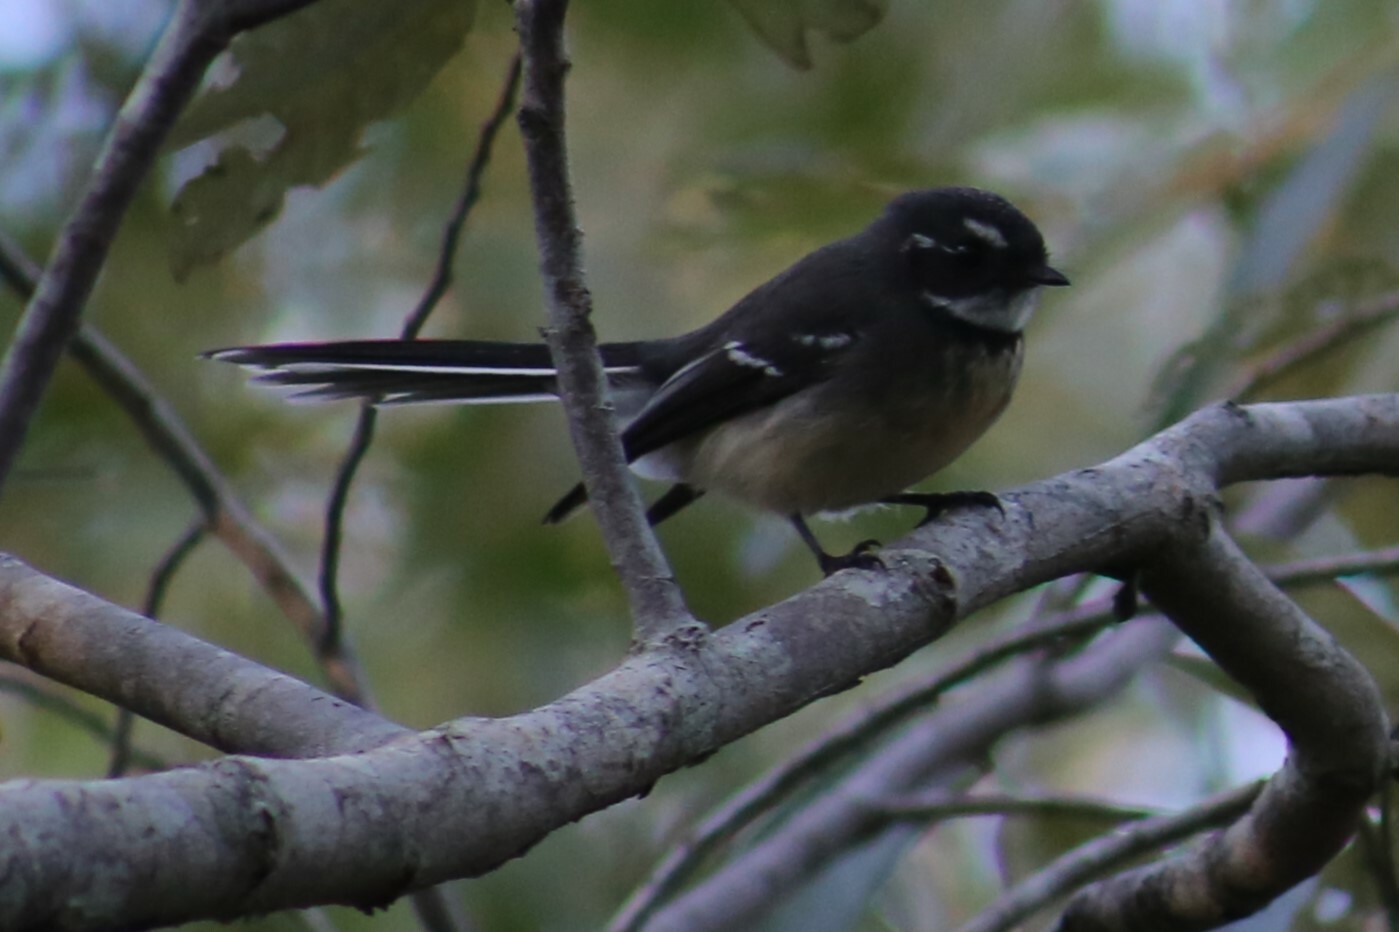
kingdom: Animalia
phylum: Chordata
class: Aves
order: Passeriformes
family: Rhipiduridae
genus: Rhipidura
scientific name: Rhipidura albiscapa
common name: Grey fantail
